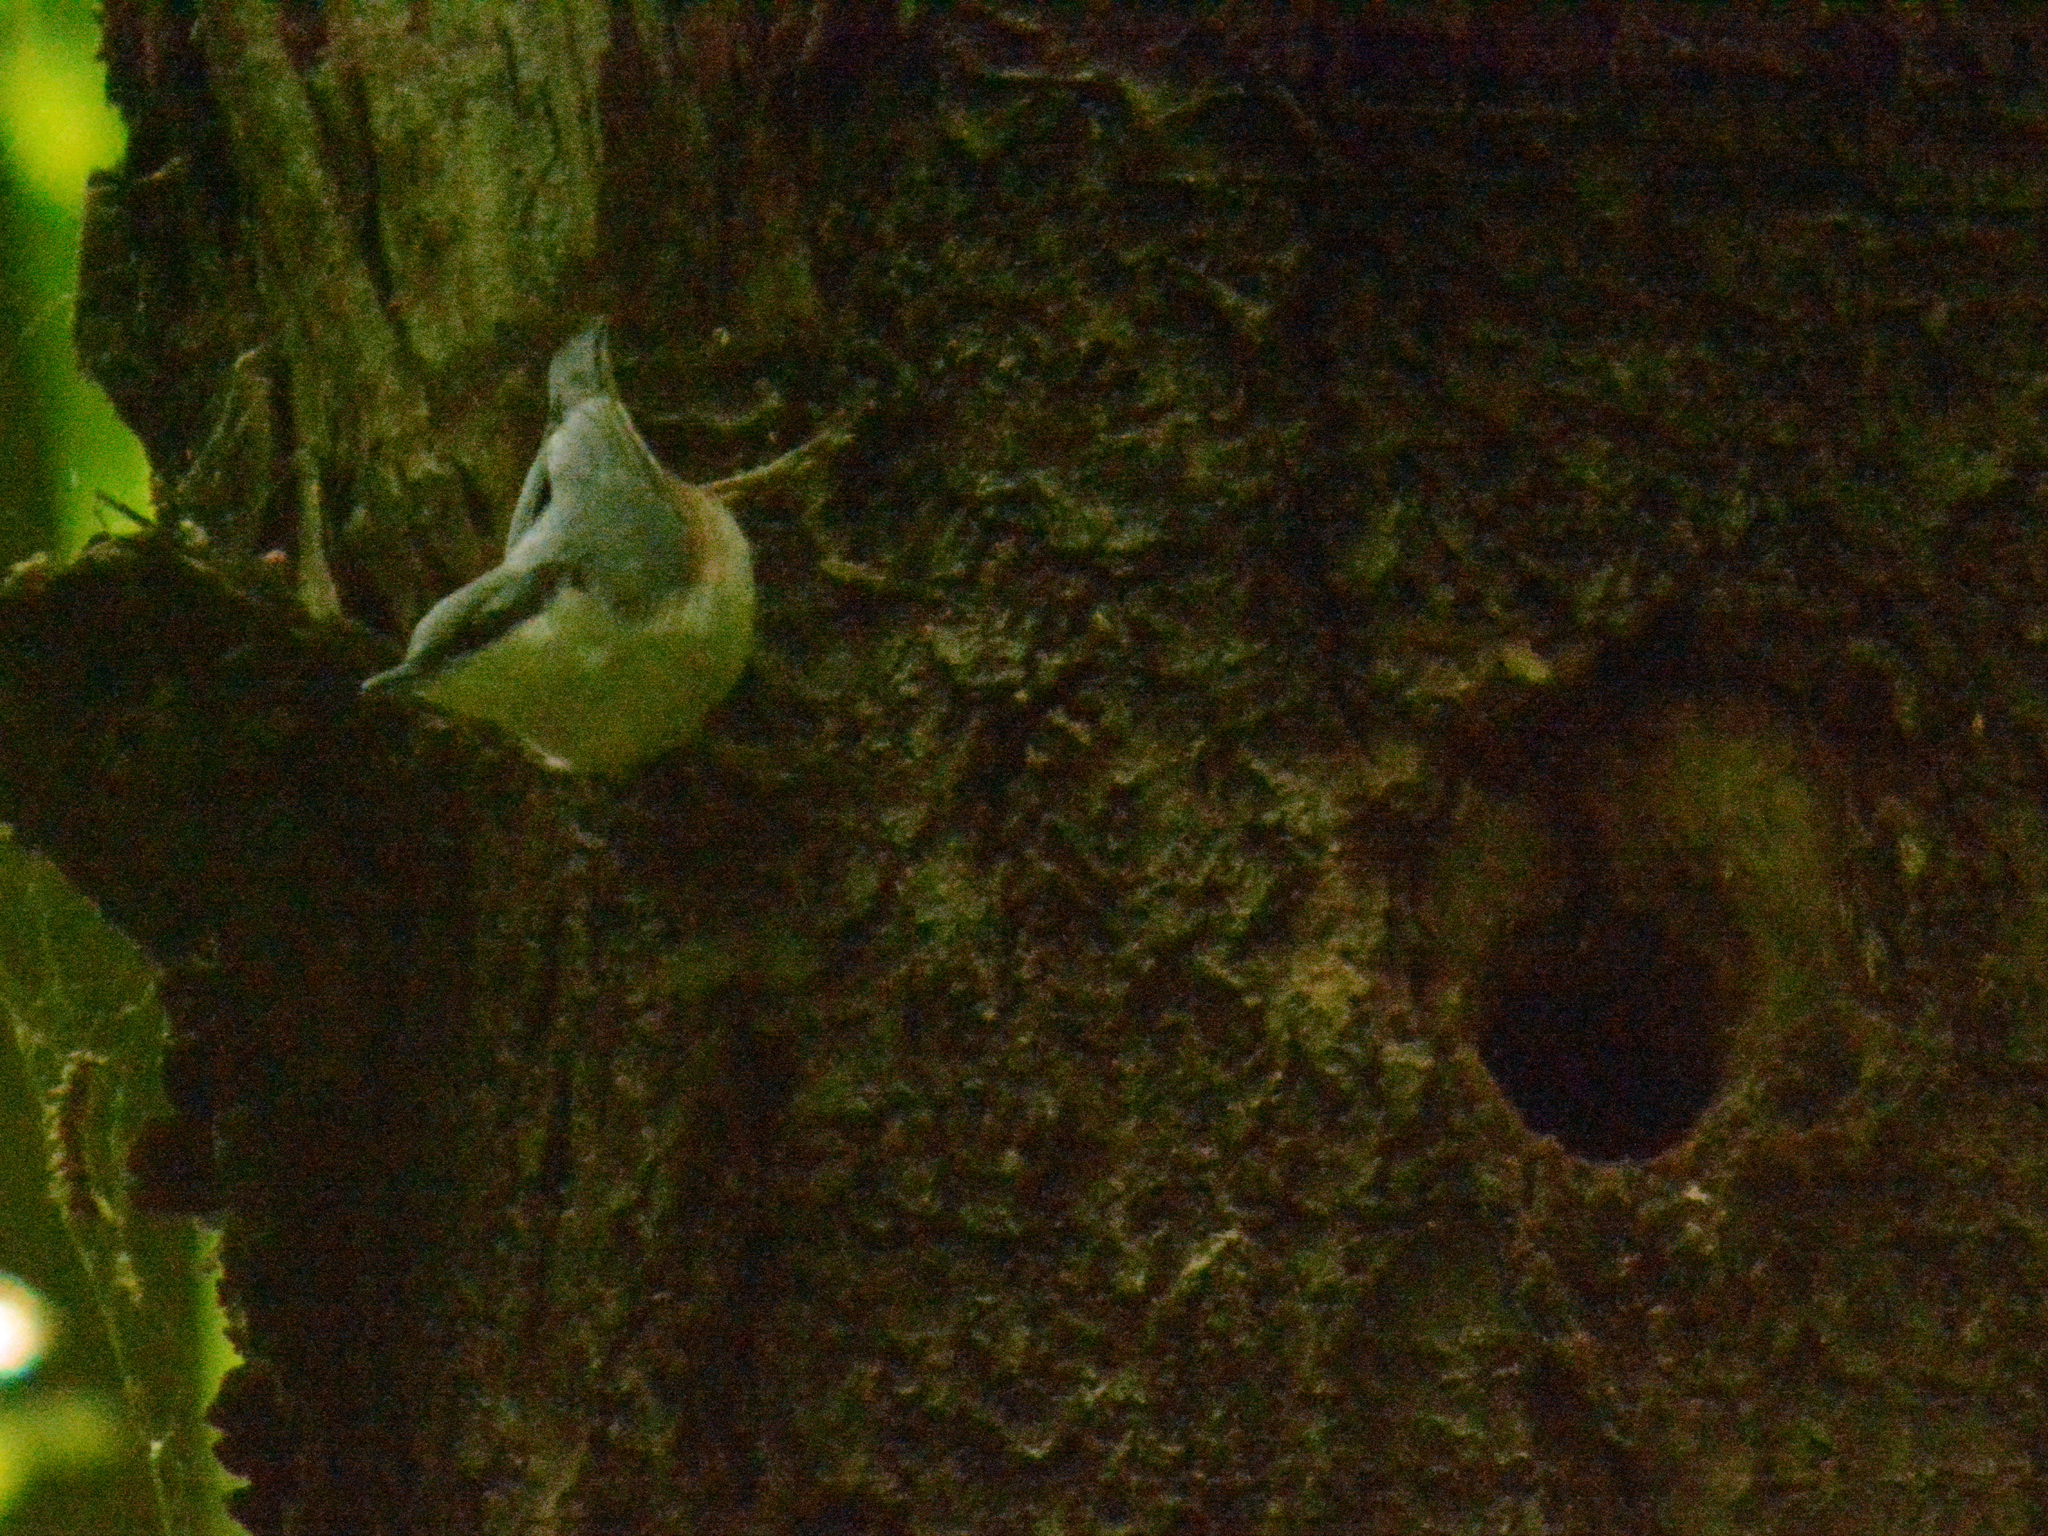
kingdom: Animalia
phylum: Chordata
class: Aves
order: Passeriformes
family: Sittidae
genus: Sitta
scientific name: Sitta europaea
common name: Eurasian nuthatch
